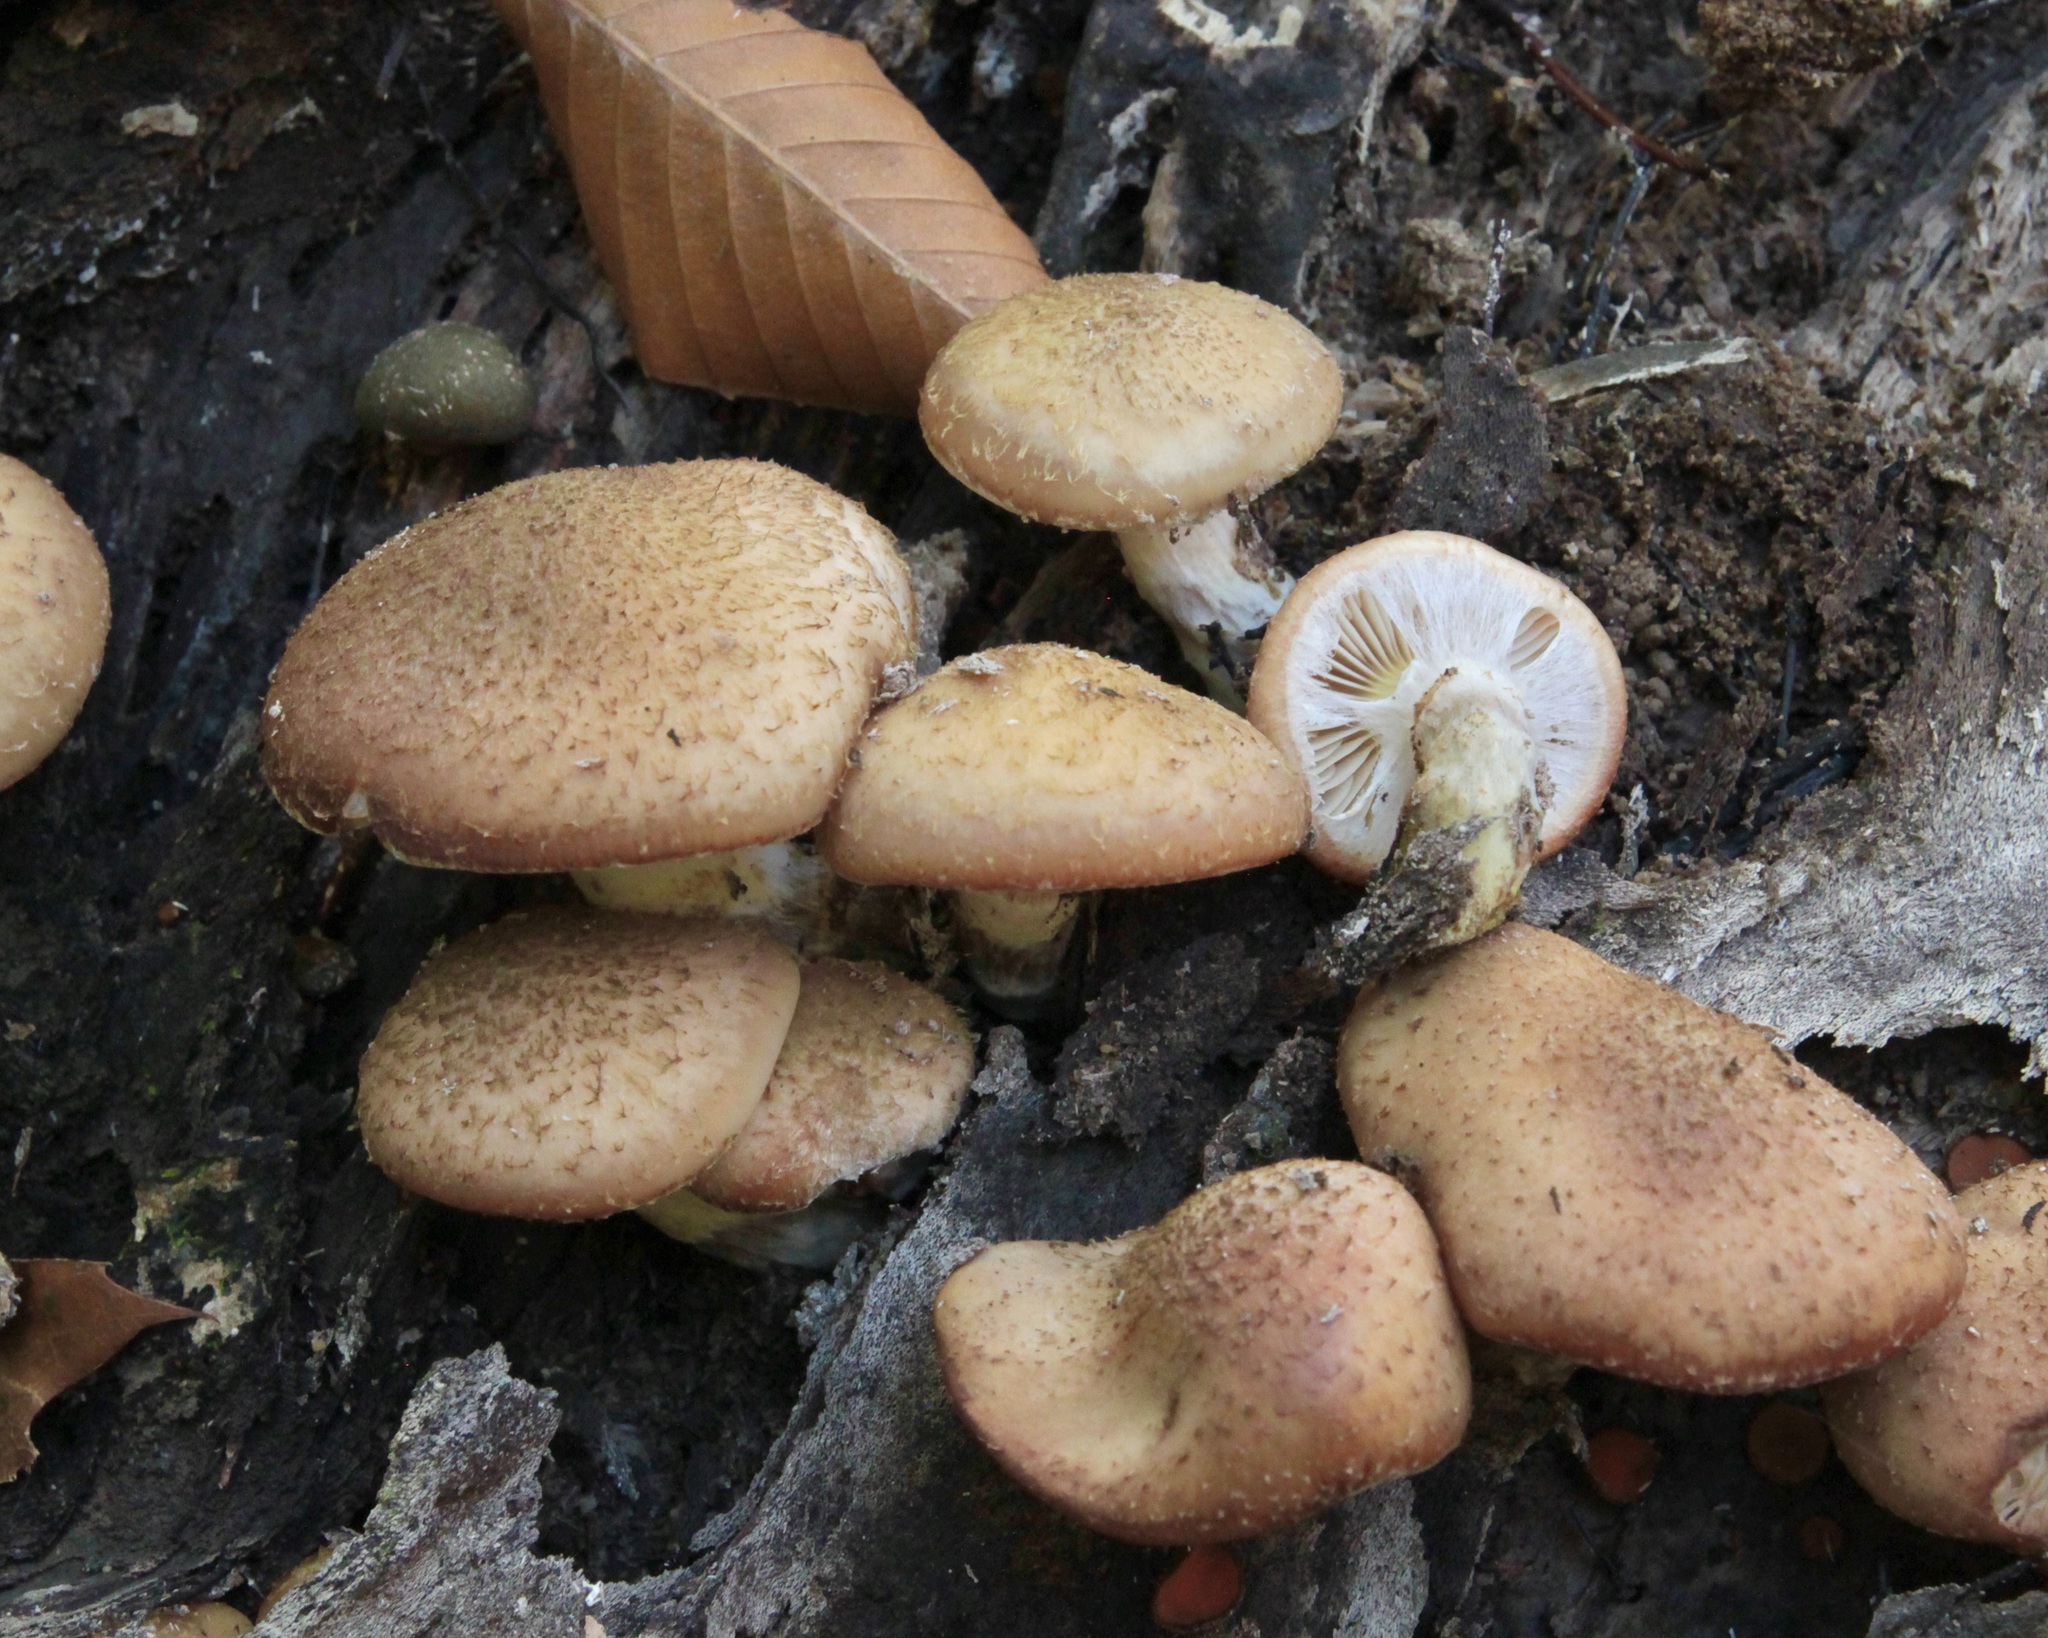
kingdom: Fungi
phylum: Basidiomycota
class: Agaricomycetes
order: Agaricales
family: Physalacriaceae
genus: Armillaria
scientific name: Armillaria gallica
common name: Bulbous honey fungus
